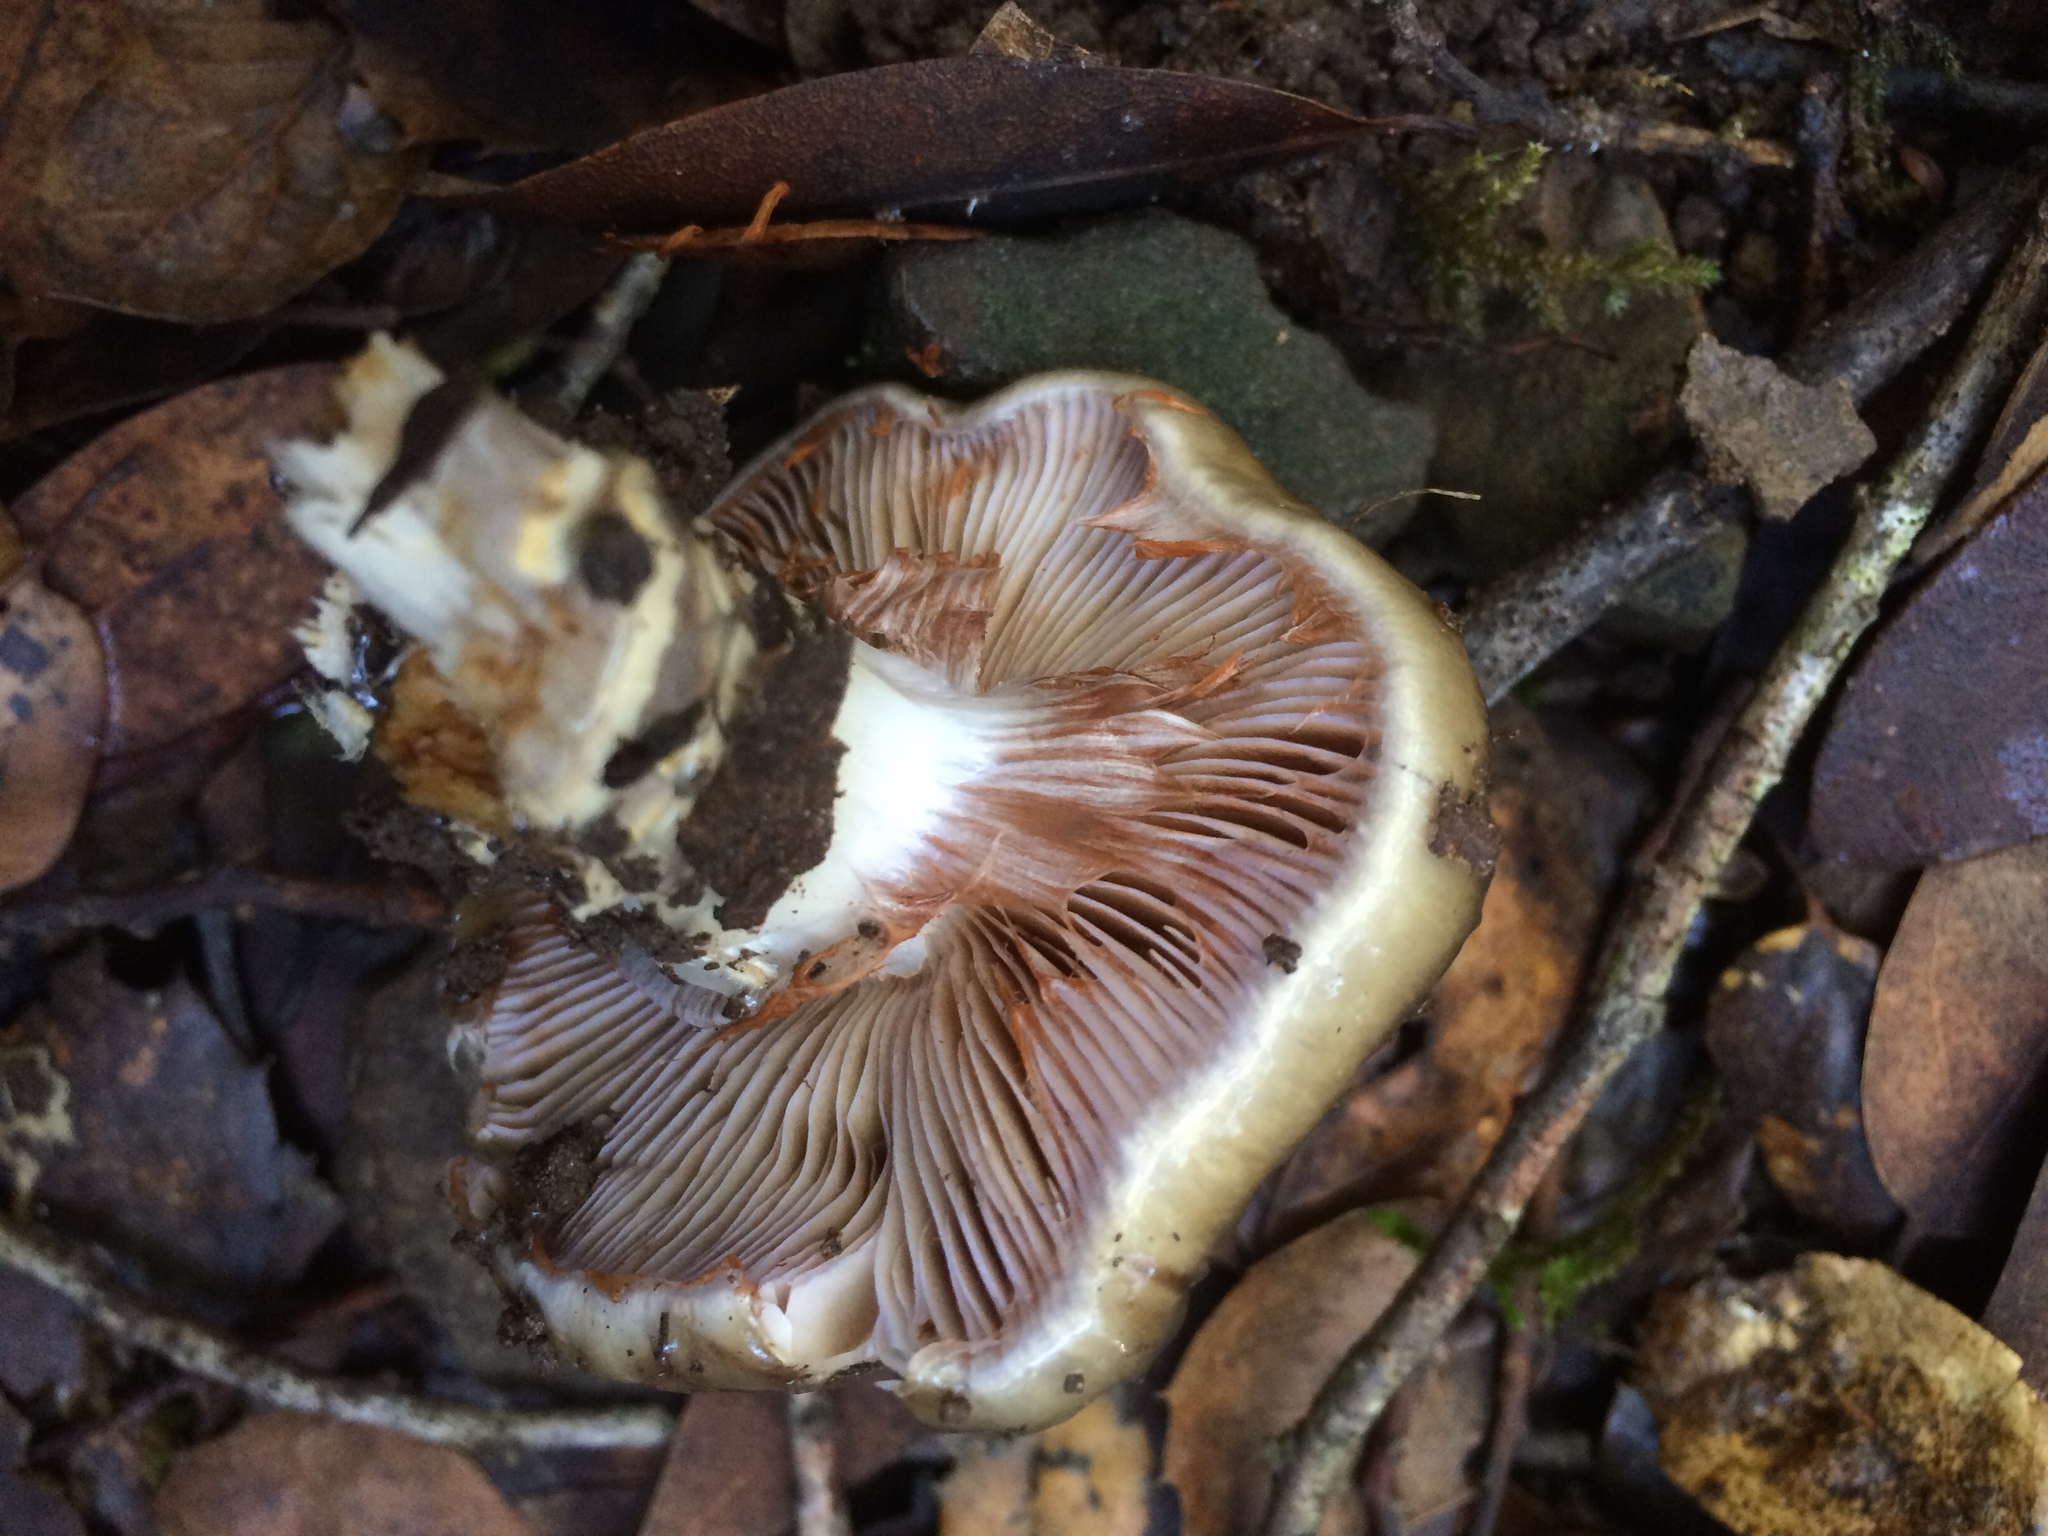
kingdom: Fungi
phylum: Basidiomycota
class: Agaricomycetes
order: Agaricales
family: Cortinariaceae
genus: Cortinarius
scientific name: Cortinarius glutinosoarmillatus
